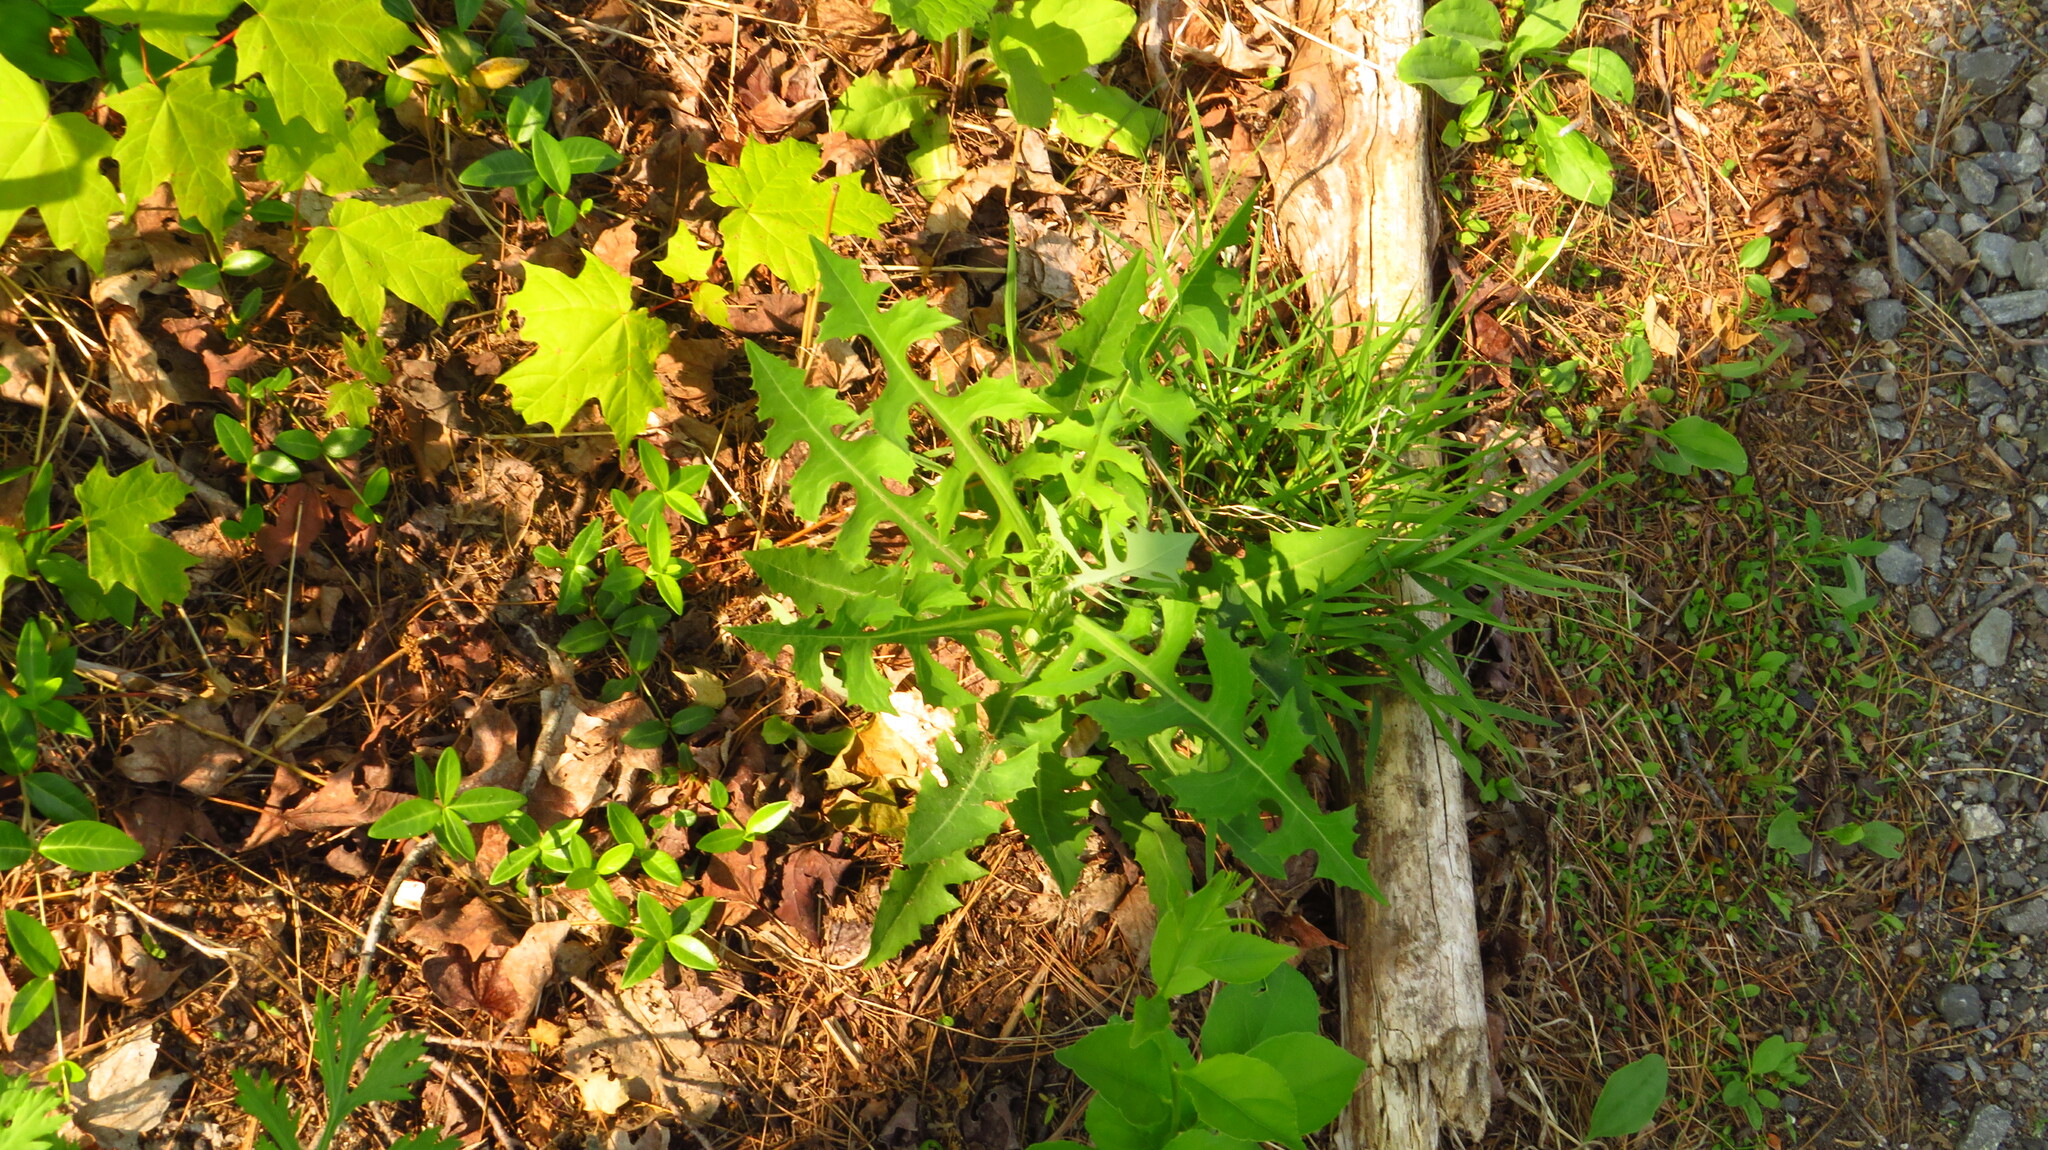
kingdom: Plantae
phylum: Tracheophyta
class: Magnoliopsida
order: Asterales
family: Asteraceae
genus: Lactuca
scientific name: Lactuca canadensis
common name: Canada lettuce
